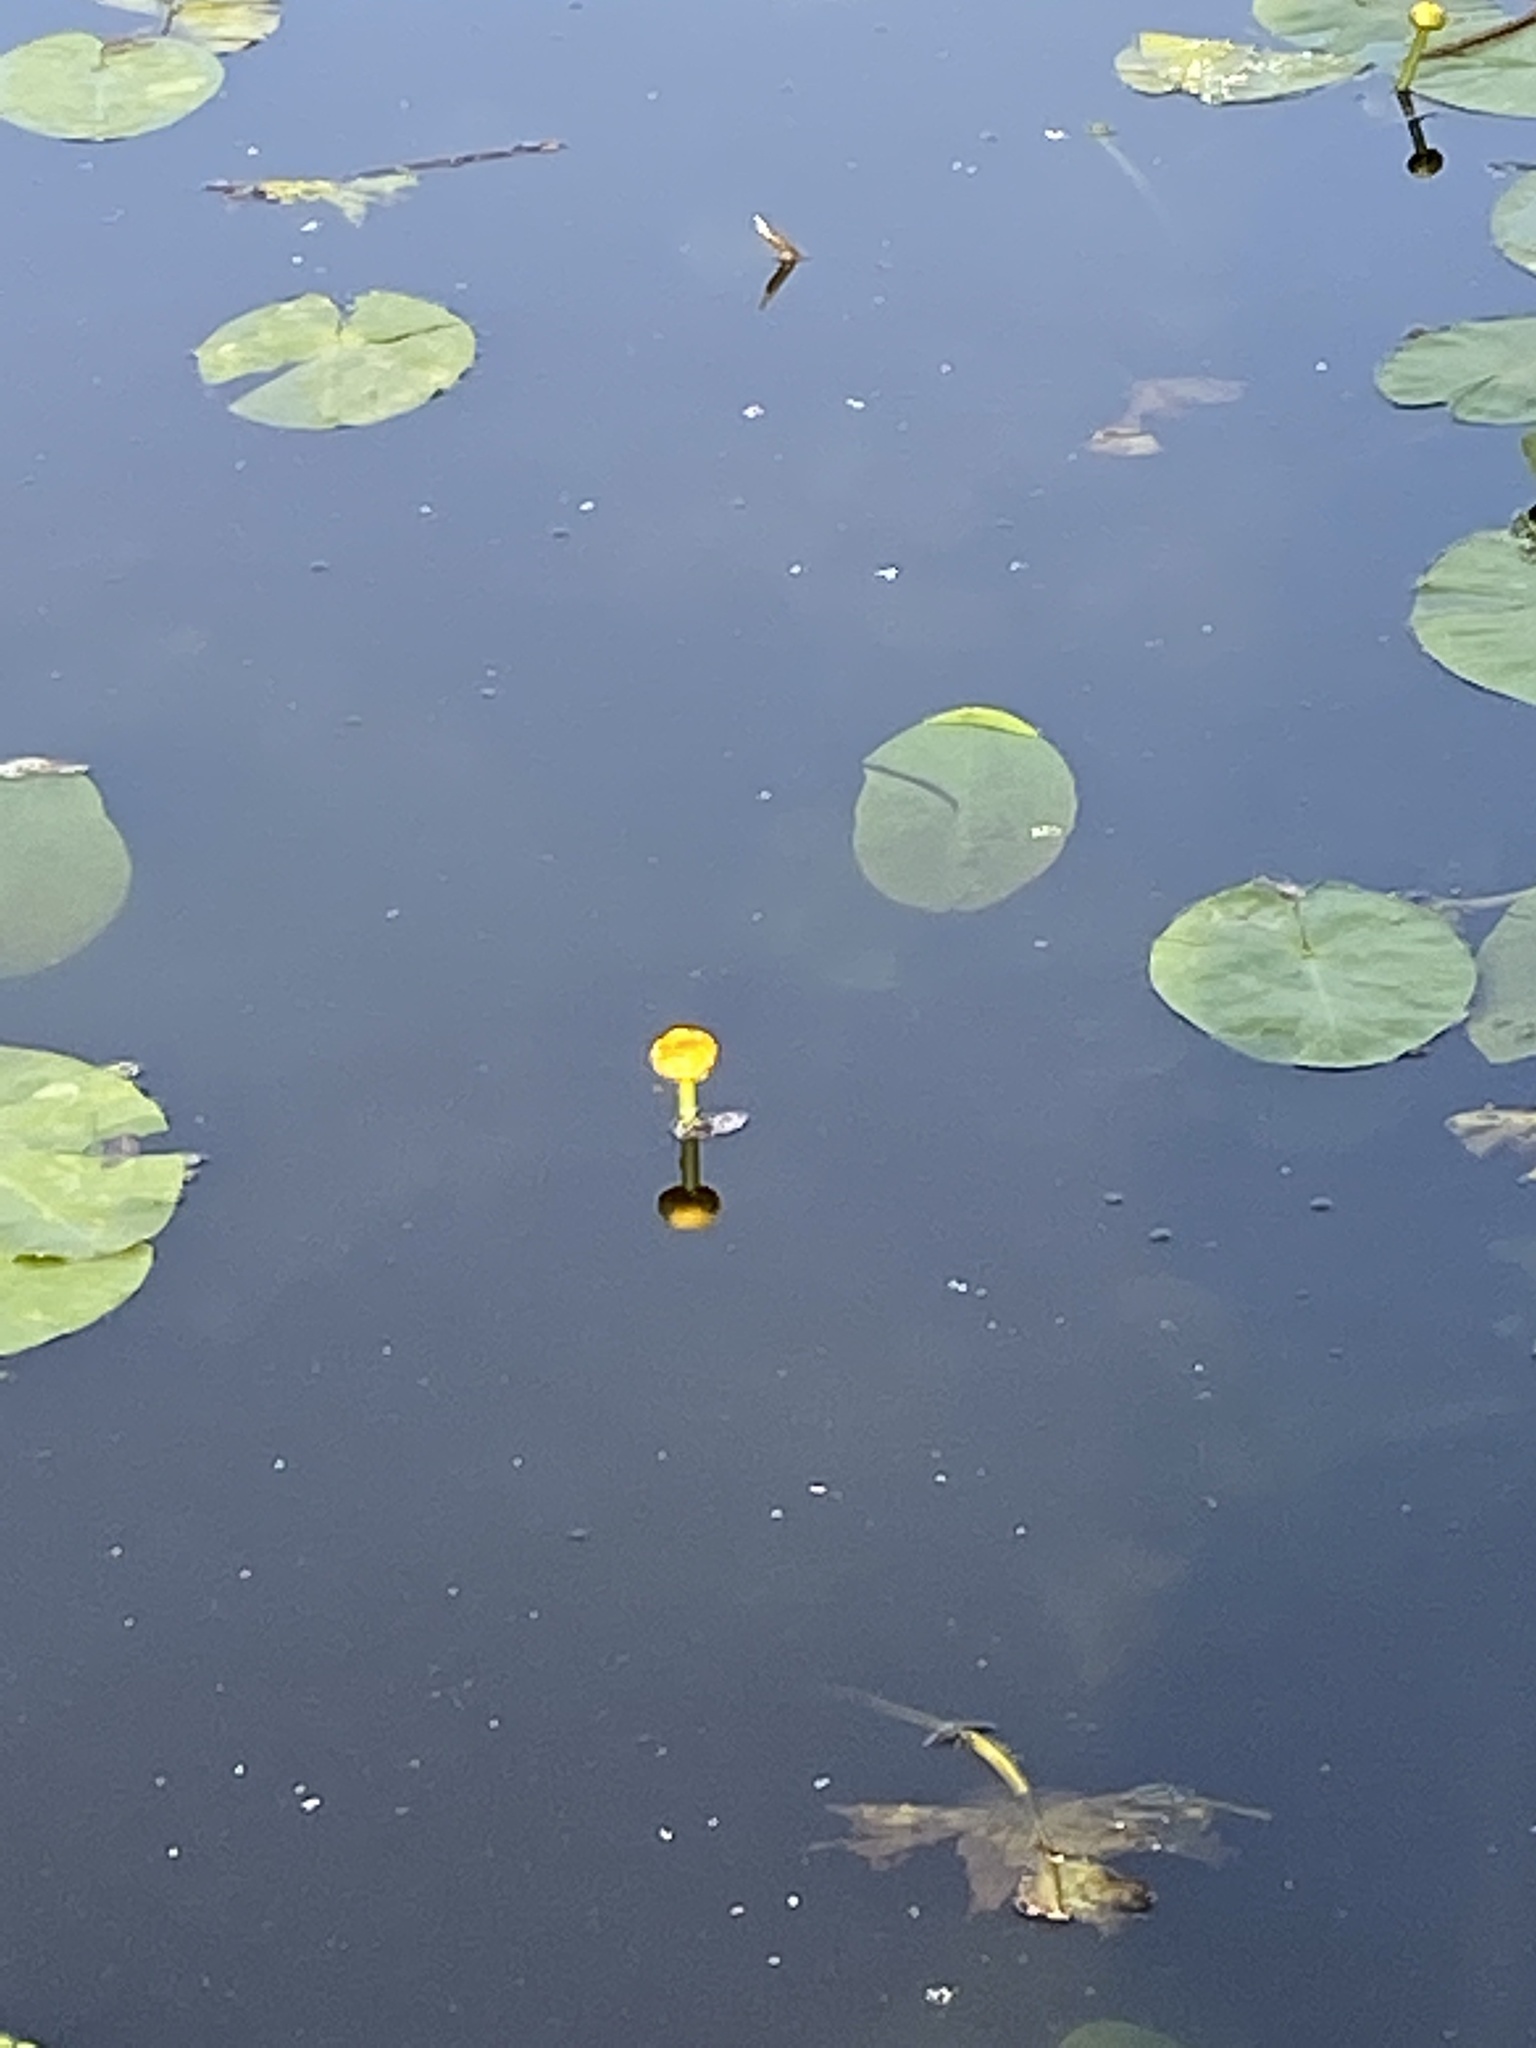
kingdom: Plantae
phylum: Tracheophyta
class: Magnoliopsida
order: Nymphaeales
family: Nymphaeaceae
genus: Nuphar
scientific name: Nuphar lutea
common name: Yellow water-lily
